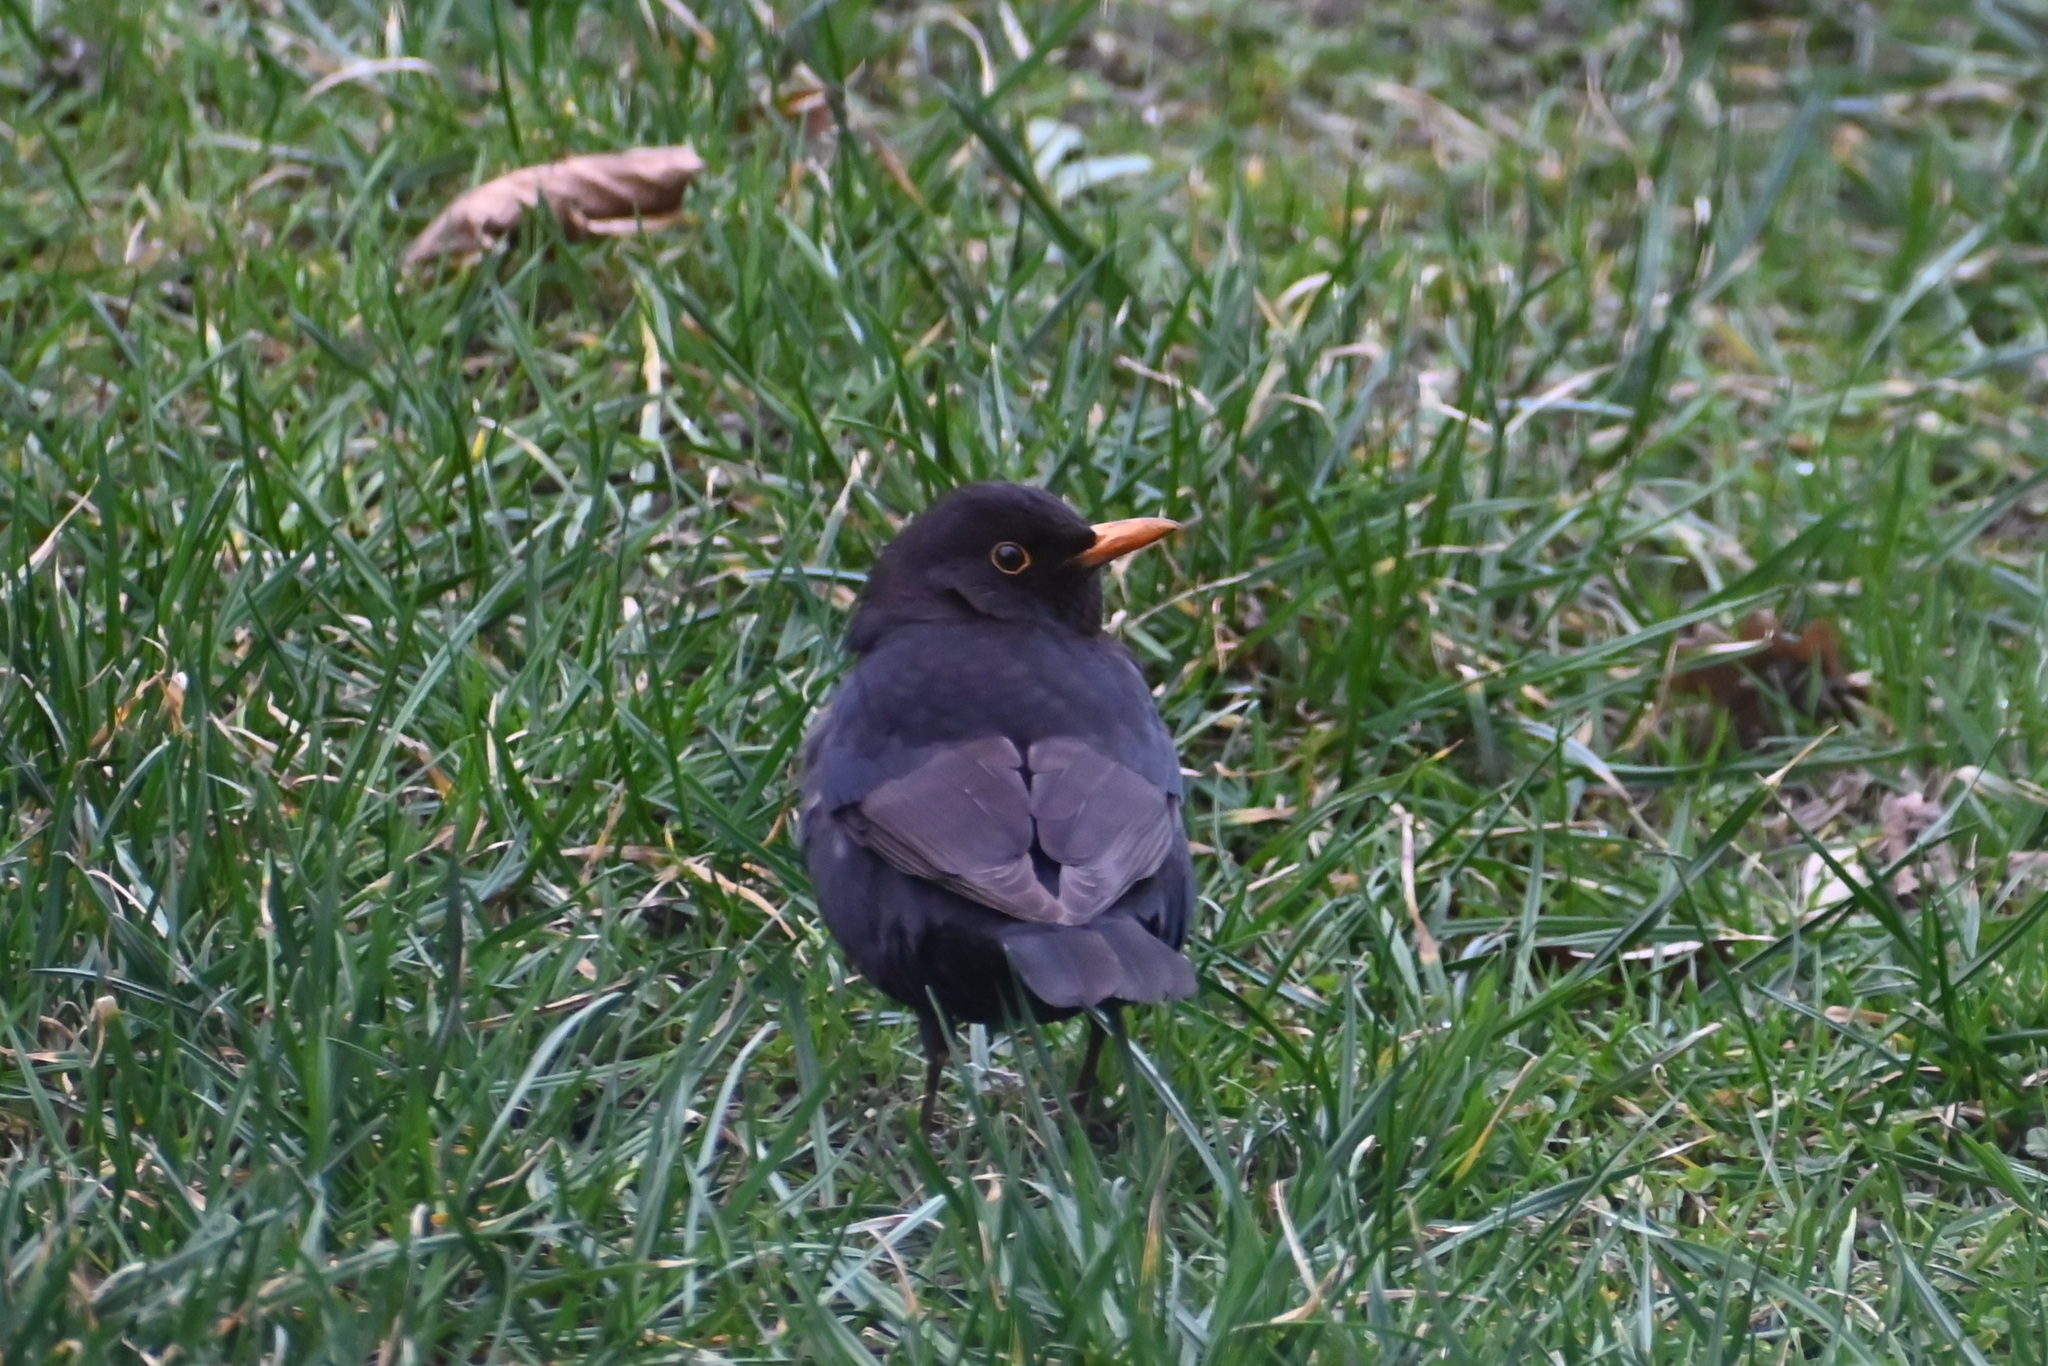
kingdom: Animalia
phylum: Chordata
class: Aves
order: Passeriformes
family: Turdidae
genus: Turdus
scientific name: Turdus merula
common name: Common blackbird
